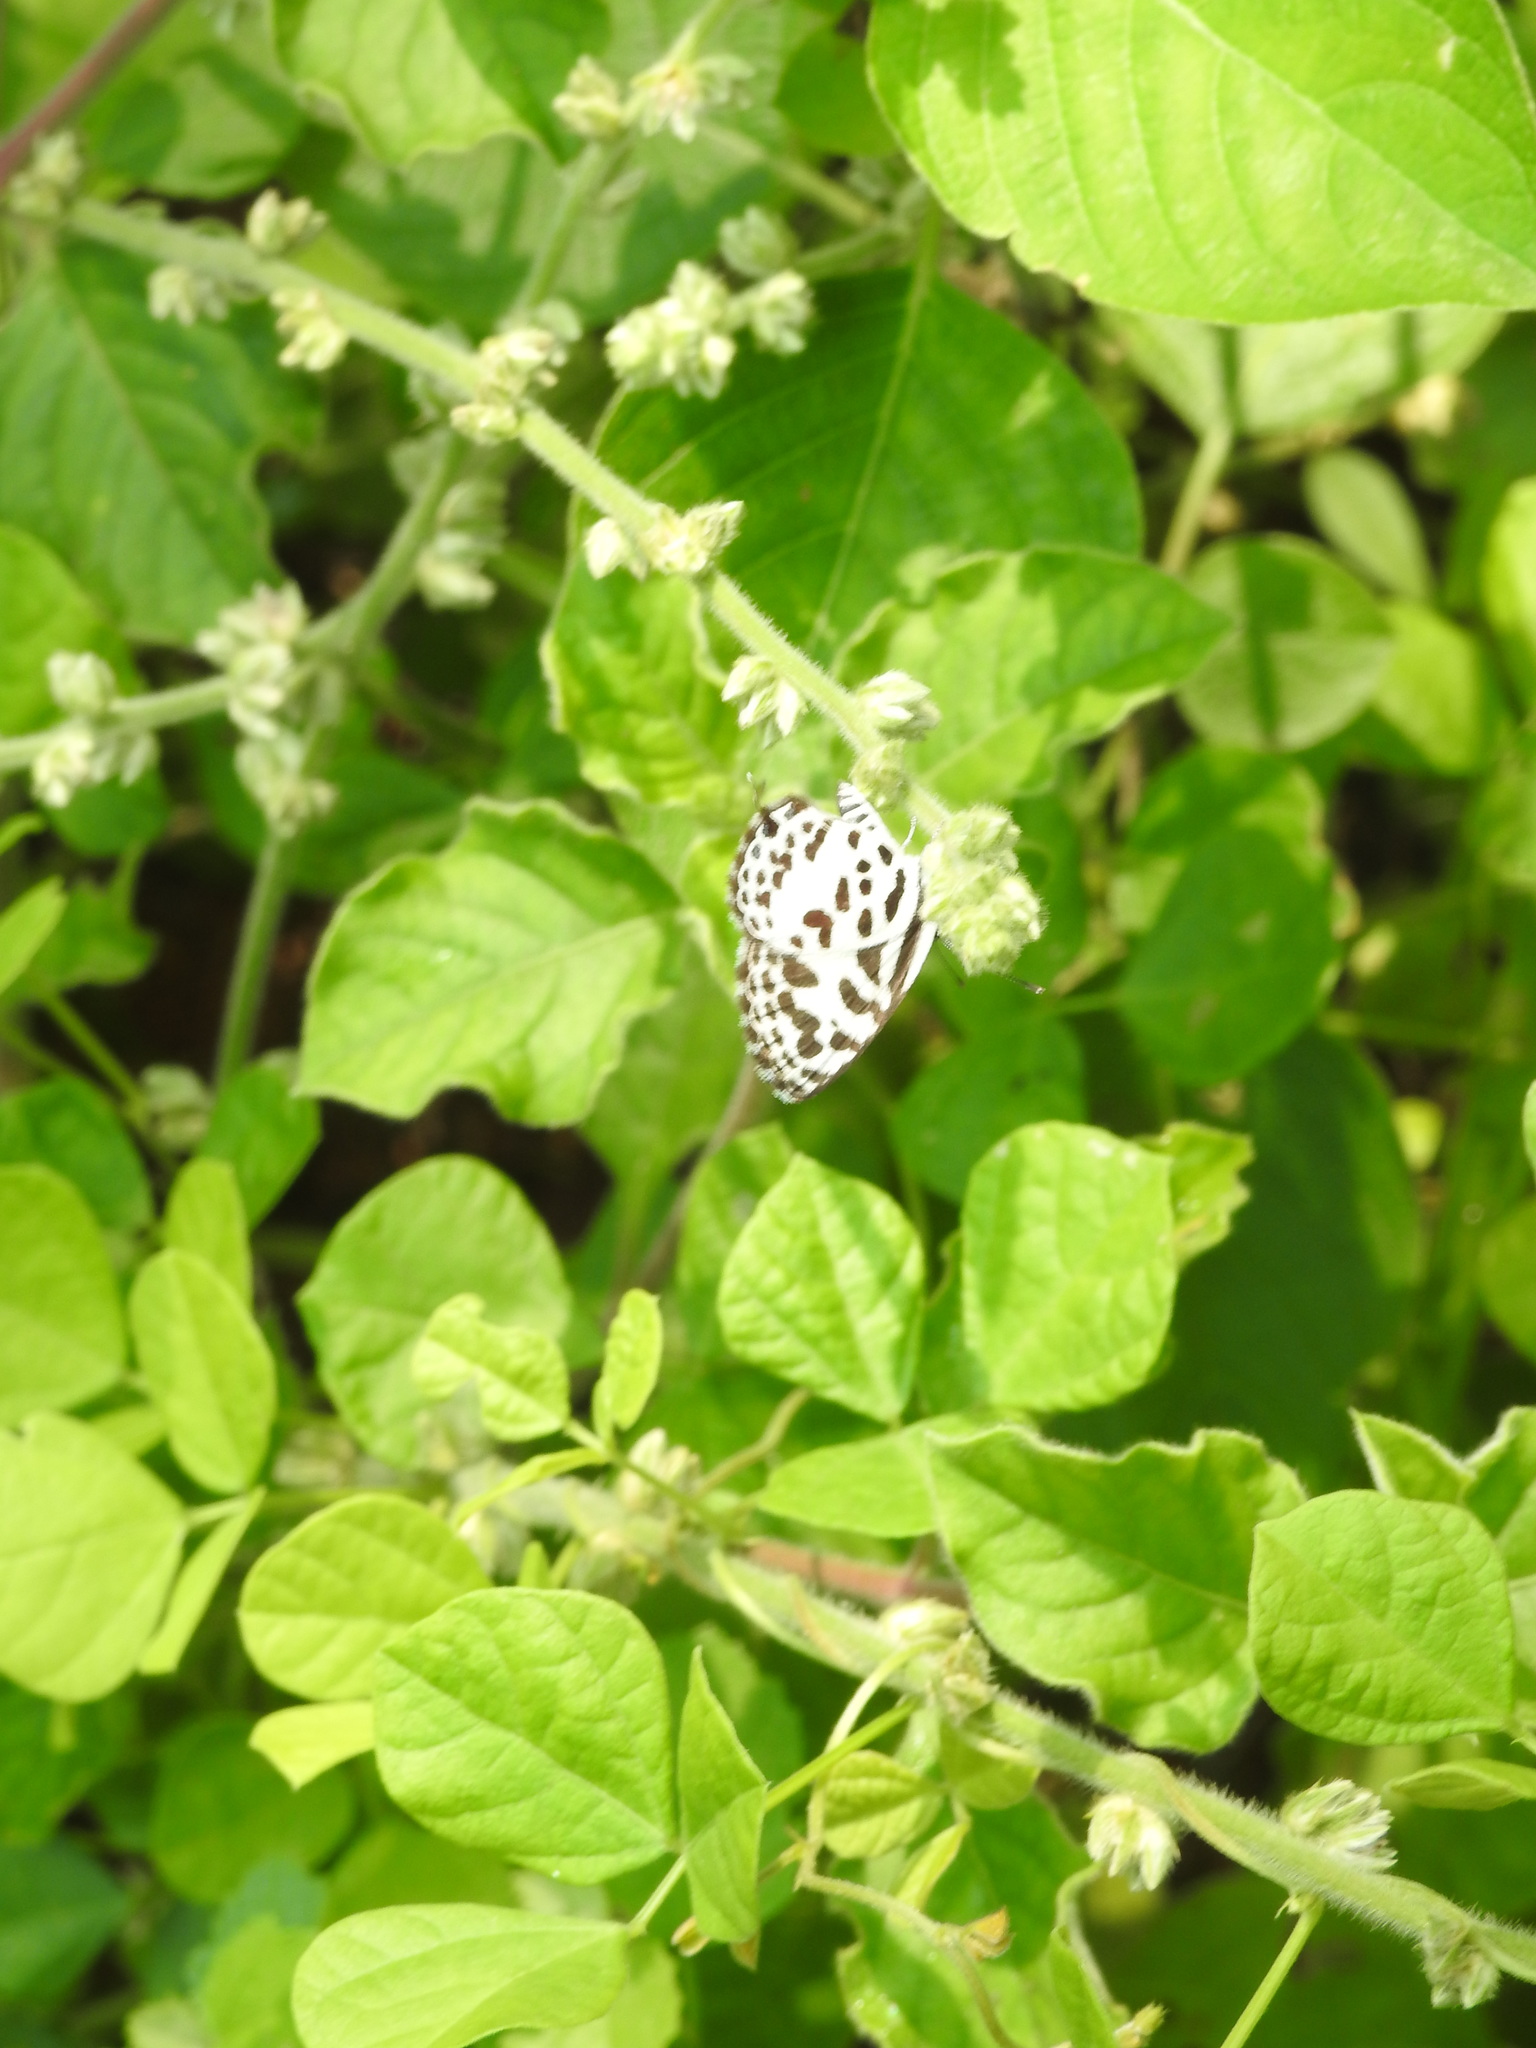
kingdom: Animalia
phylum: Arthropoda
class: Insecta
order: Lepidoptera
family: Lycaenidae
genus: Castalius
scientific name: Castalius rosimon
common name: Common pierrot
